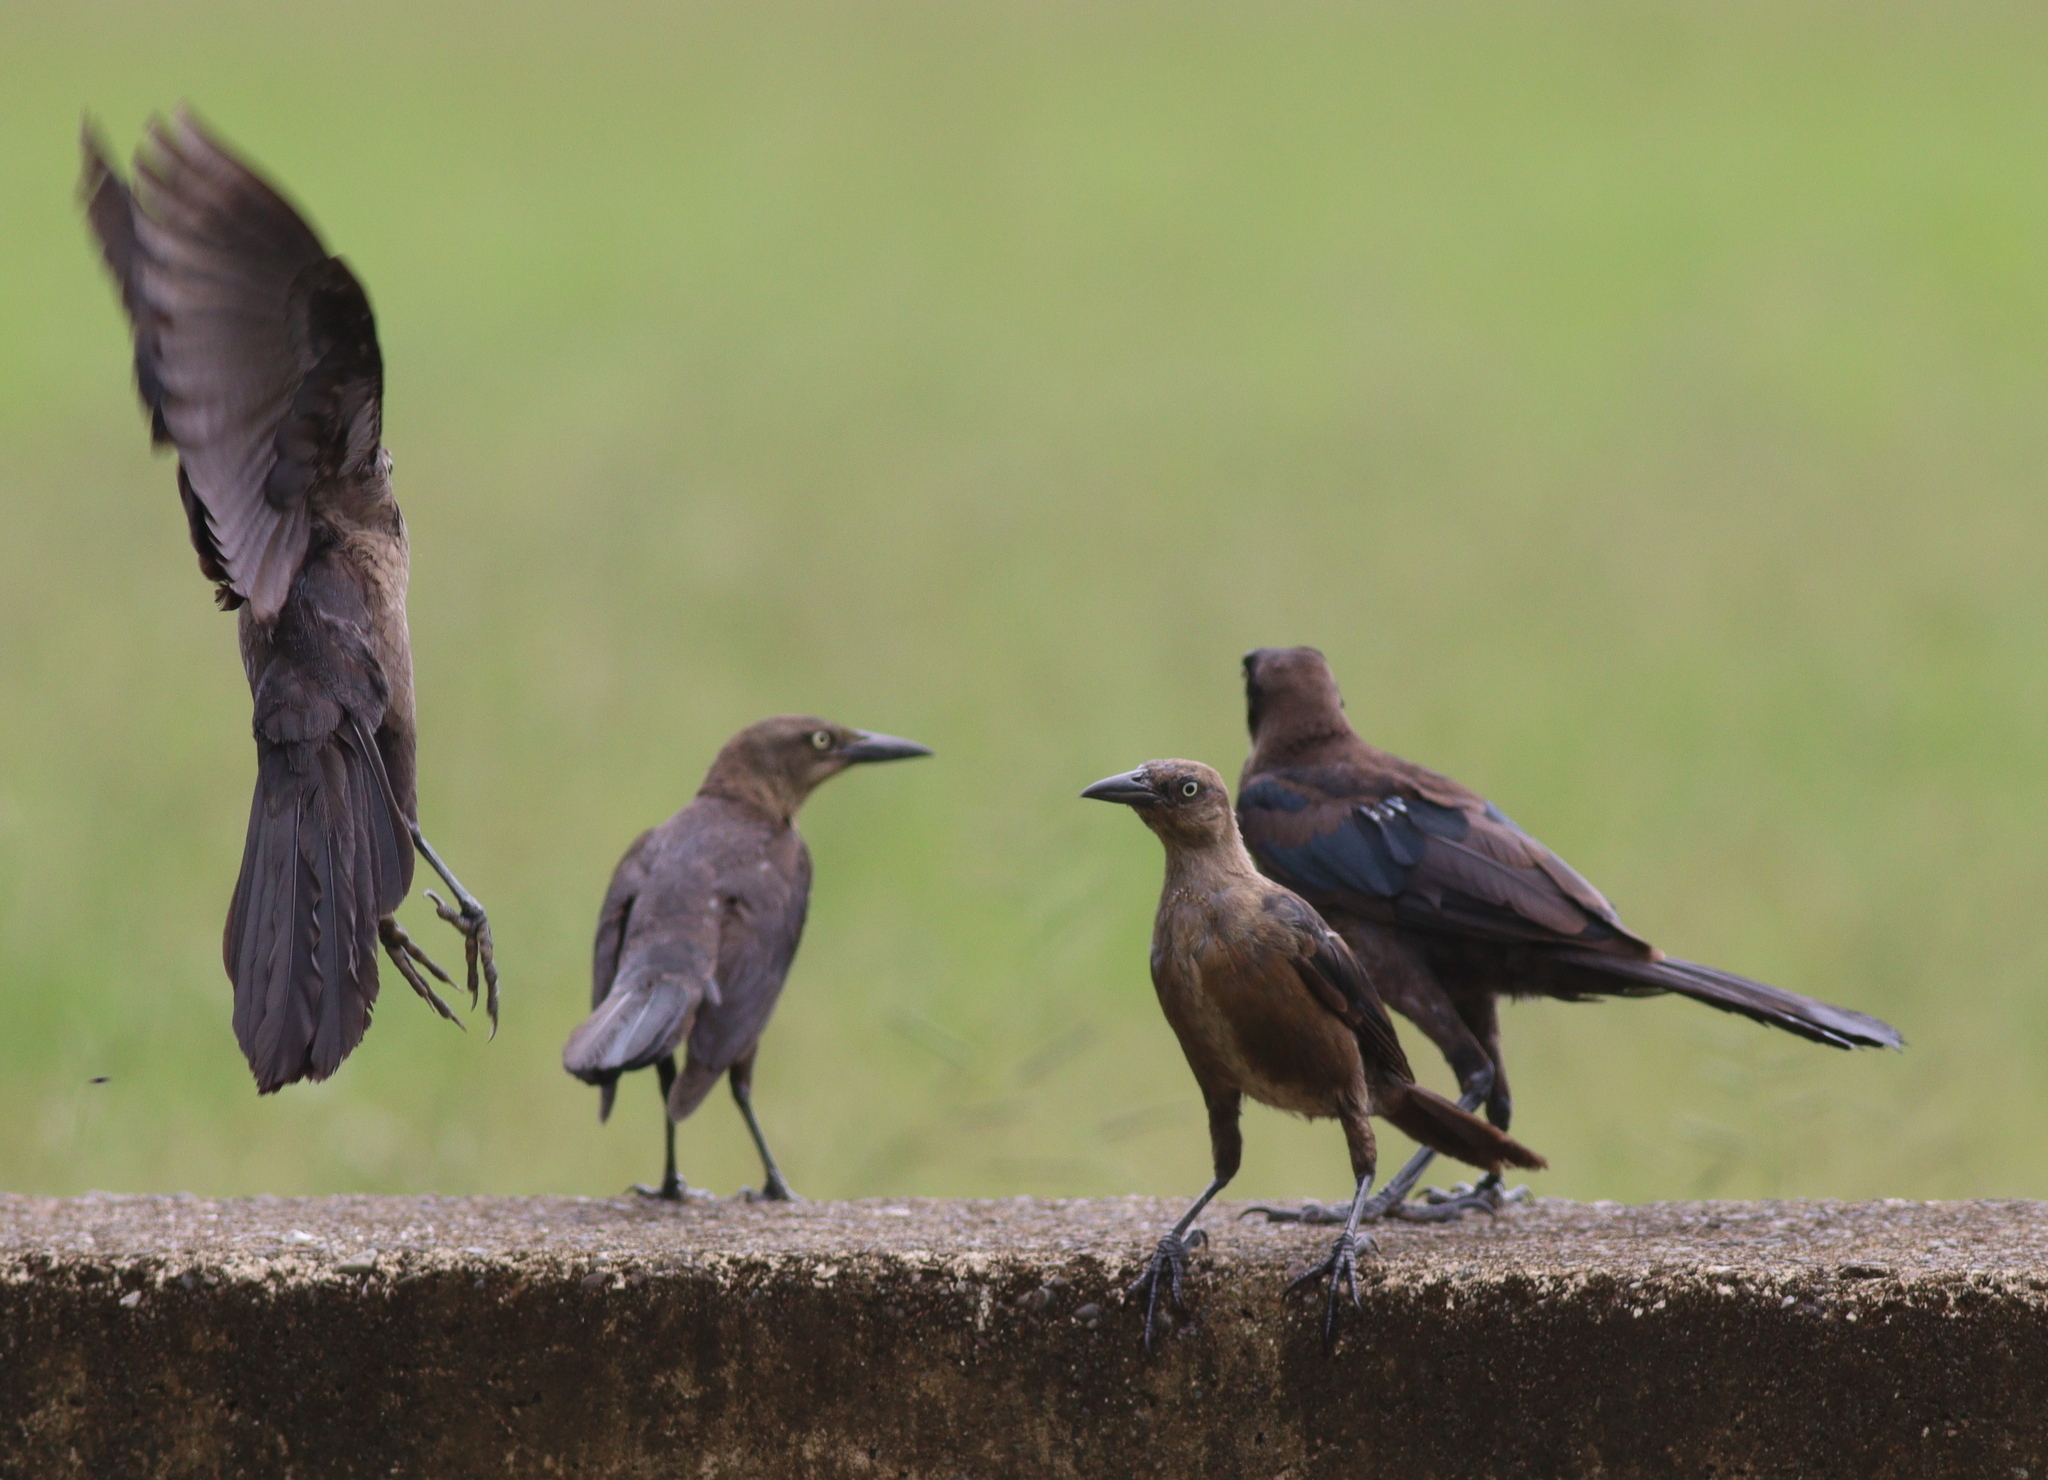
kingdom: Animalia
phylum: Chordata
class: Aves
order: Passeriformes
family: Icteridae
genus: Quiscalus
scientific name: Quiscalus mexicanus
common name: Great-tailed grackle
